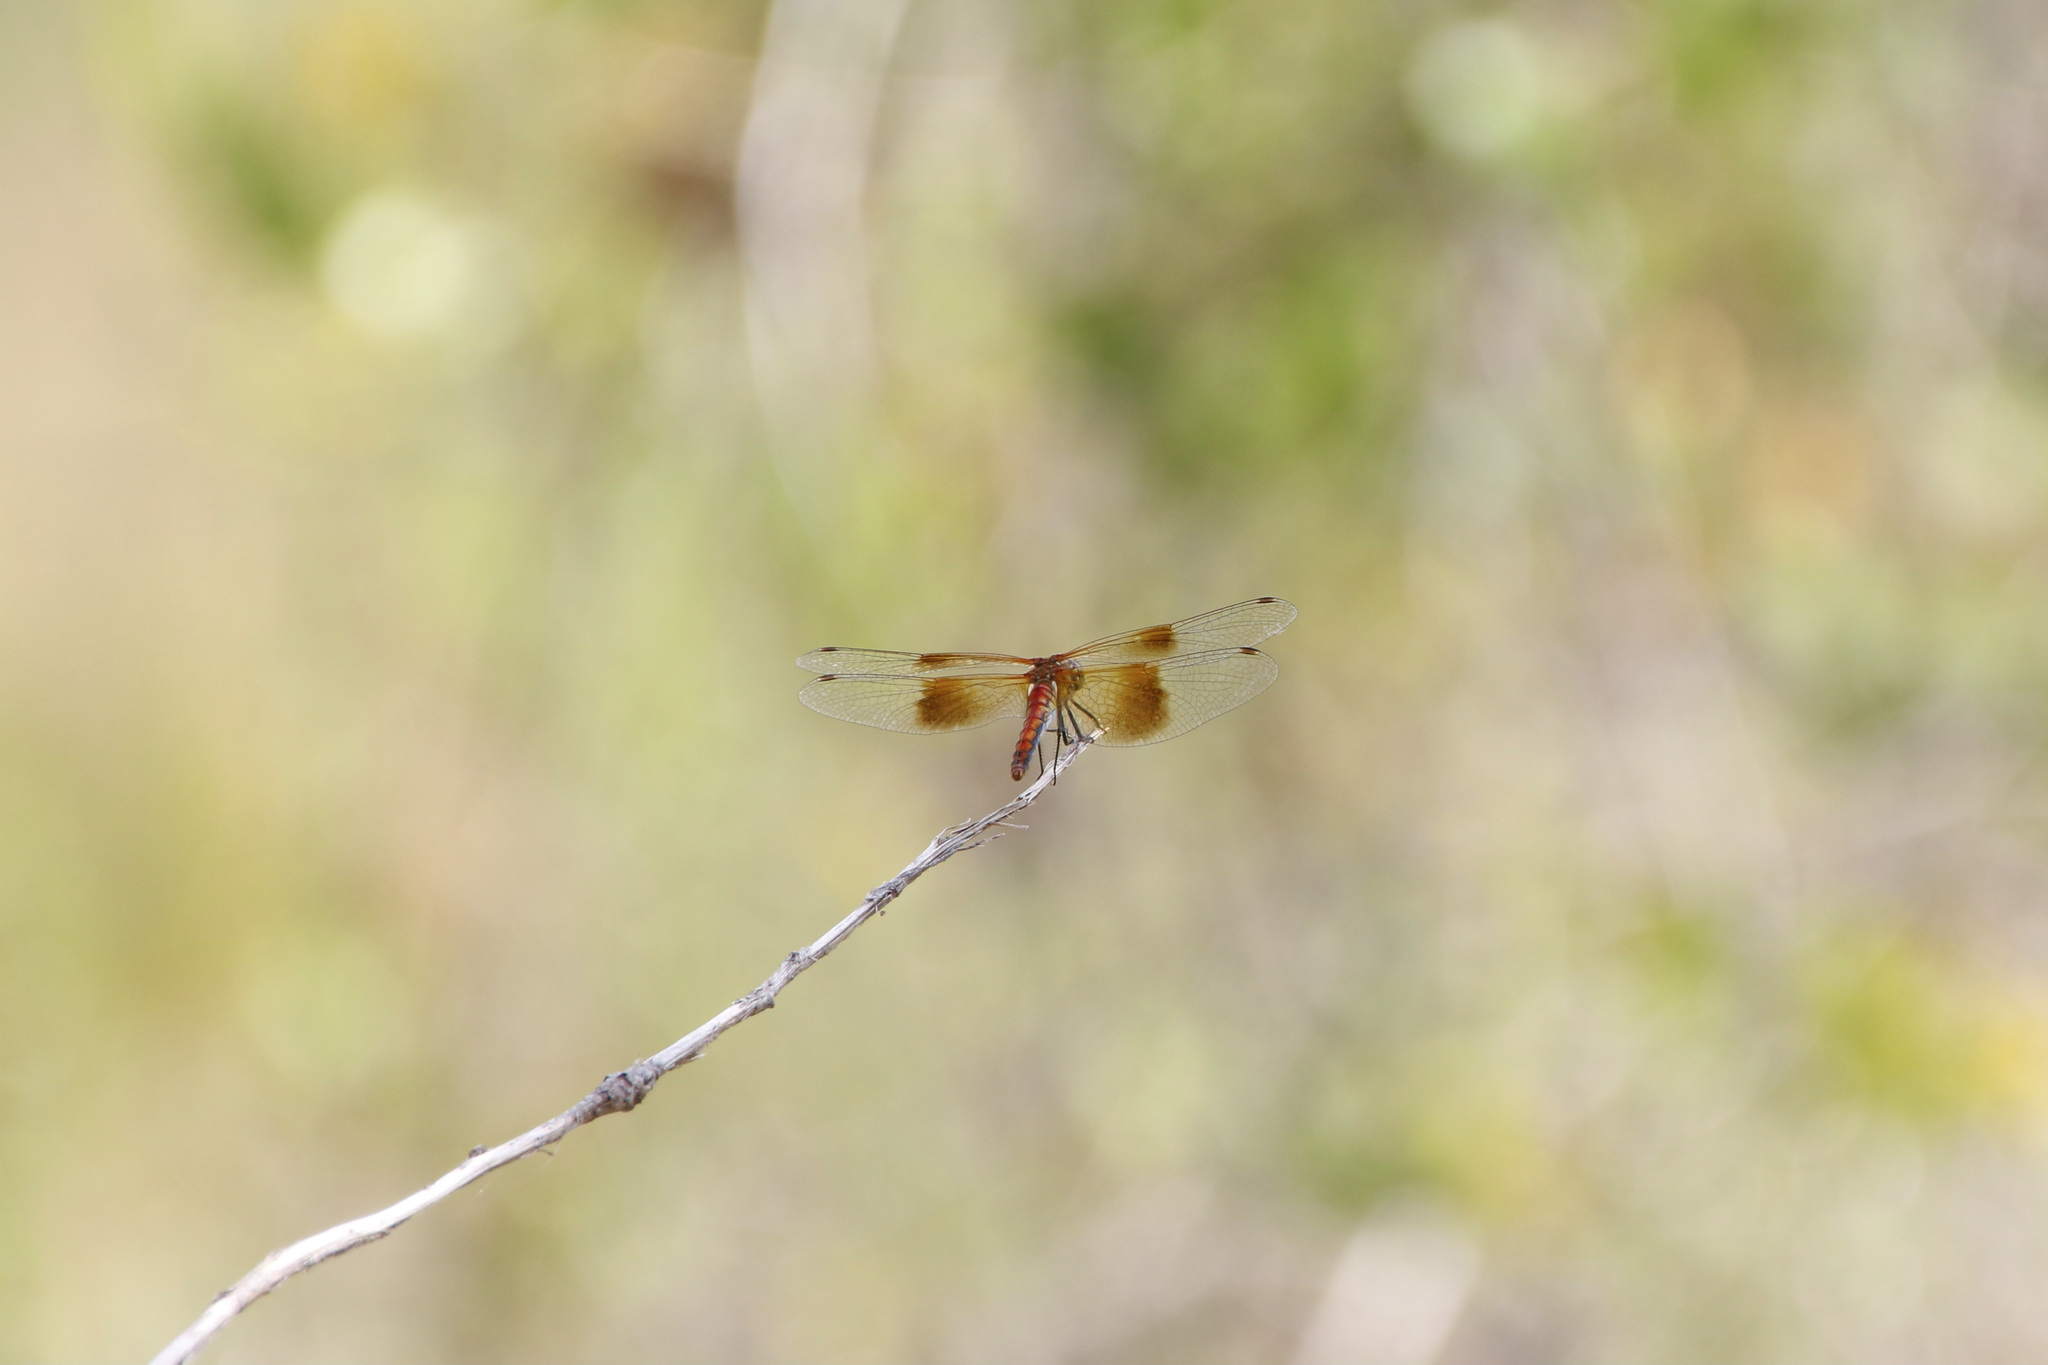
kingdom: Animalia
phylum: Arthropoda
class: Insecta
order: Odonata
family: Libellulidae
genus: Sympetrum
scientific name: Sympetrum semicinctum
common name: Band-winged meadowhawk
